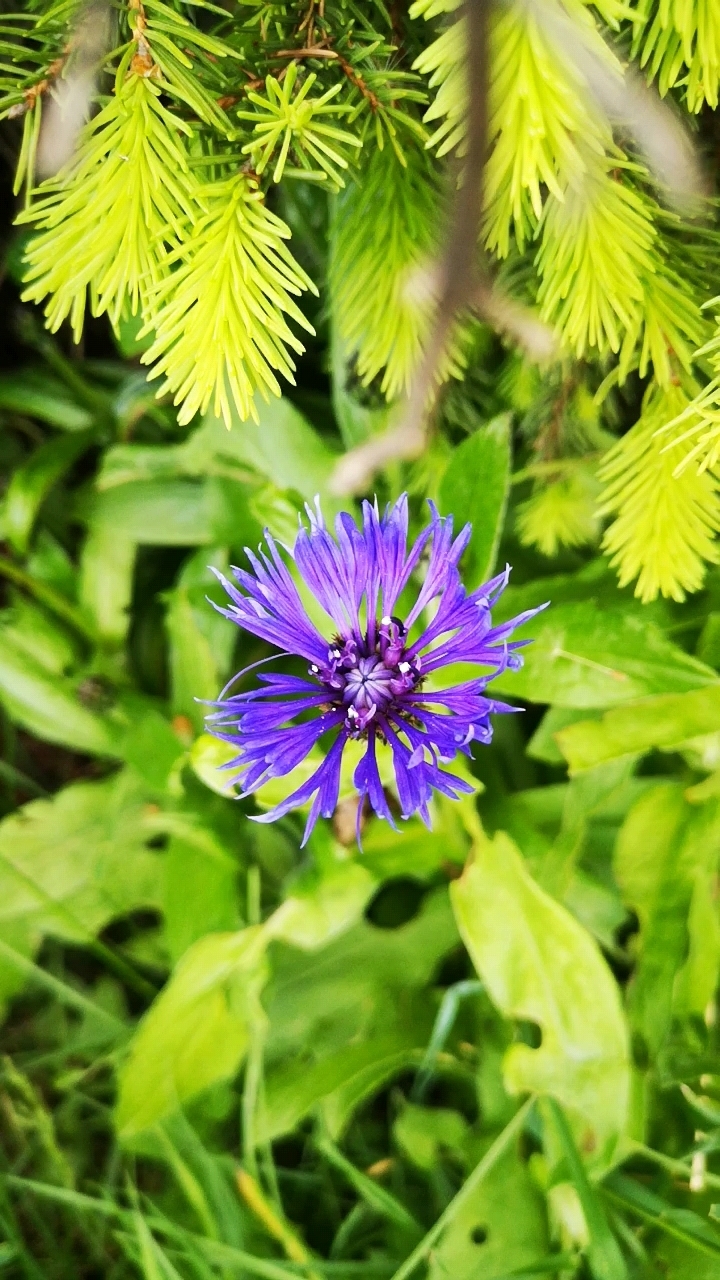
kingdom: Plantae
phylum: Tracheophyta
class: Magnoliopsida
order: Asterales
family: Asteraceae
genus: Centaurea
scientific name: Centaurea montana
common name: Perennial cornflower
